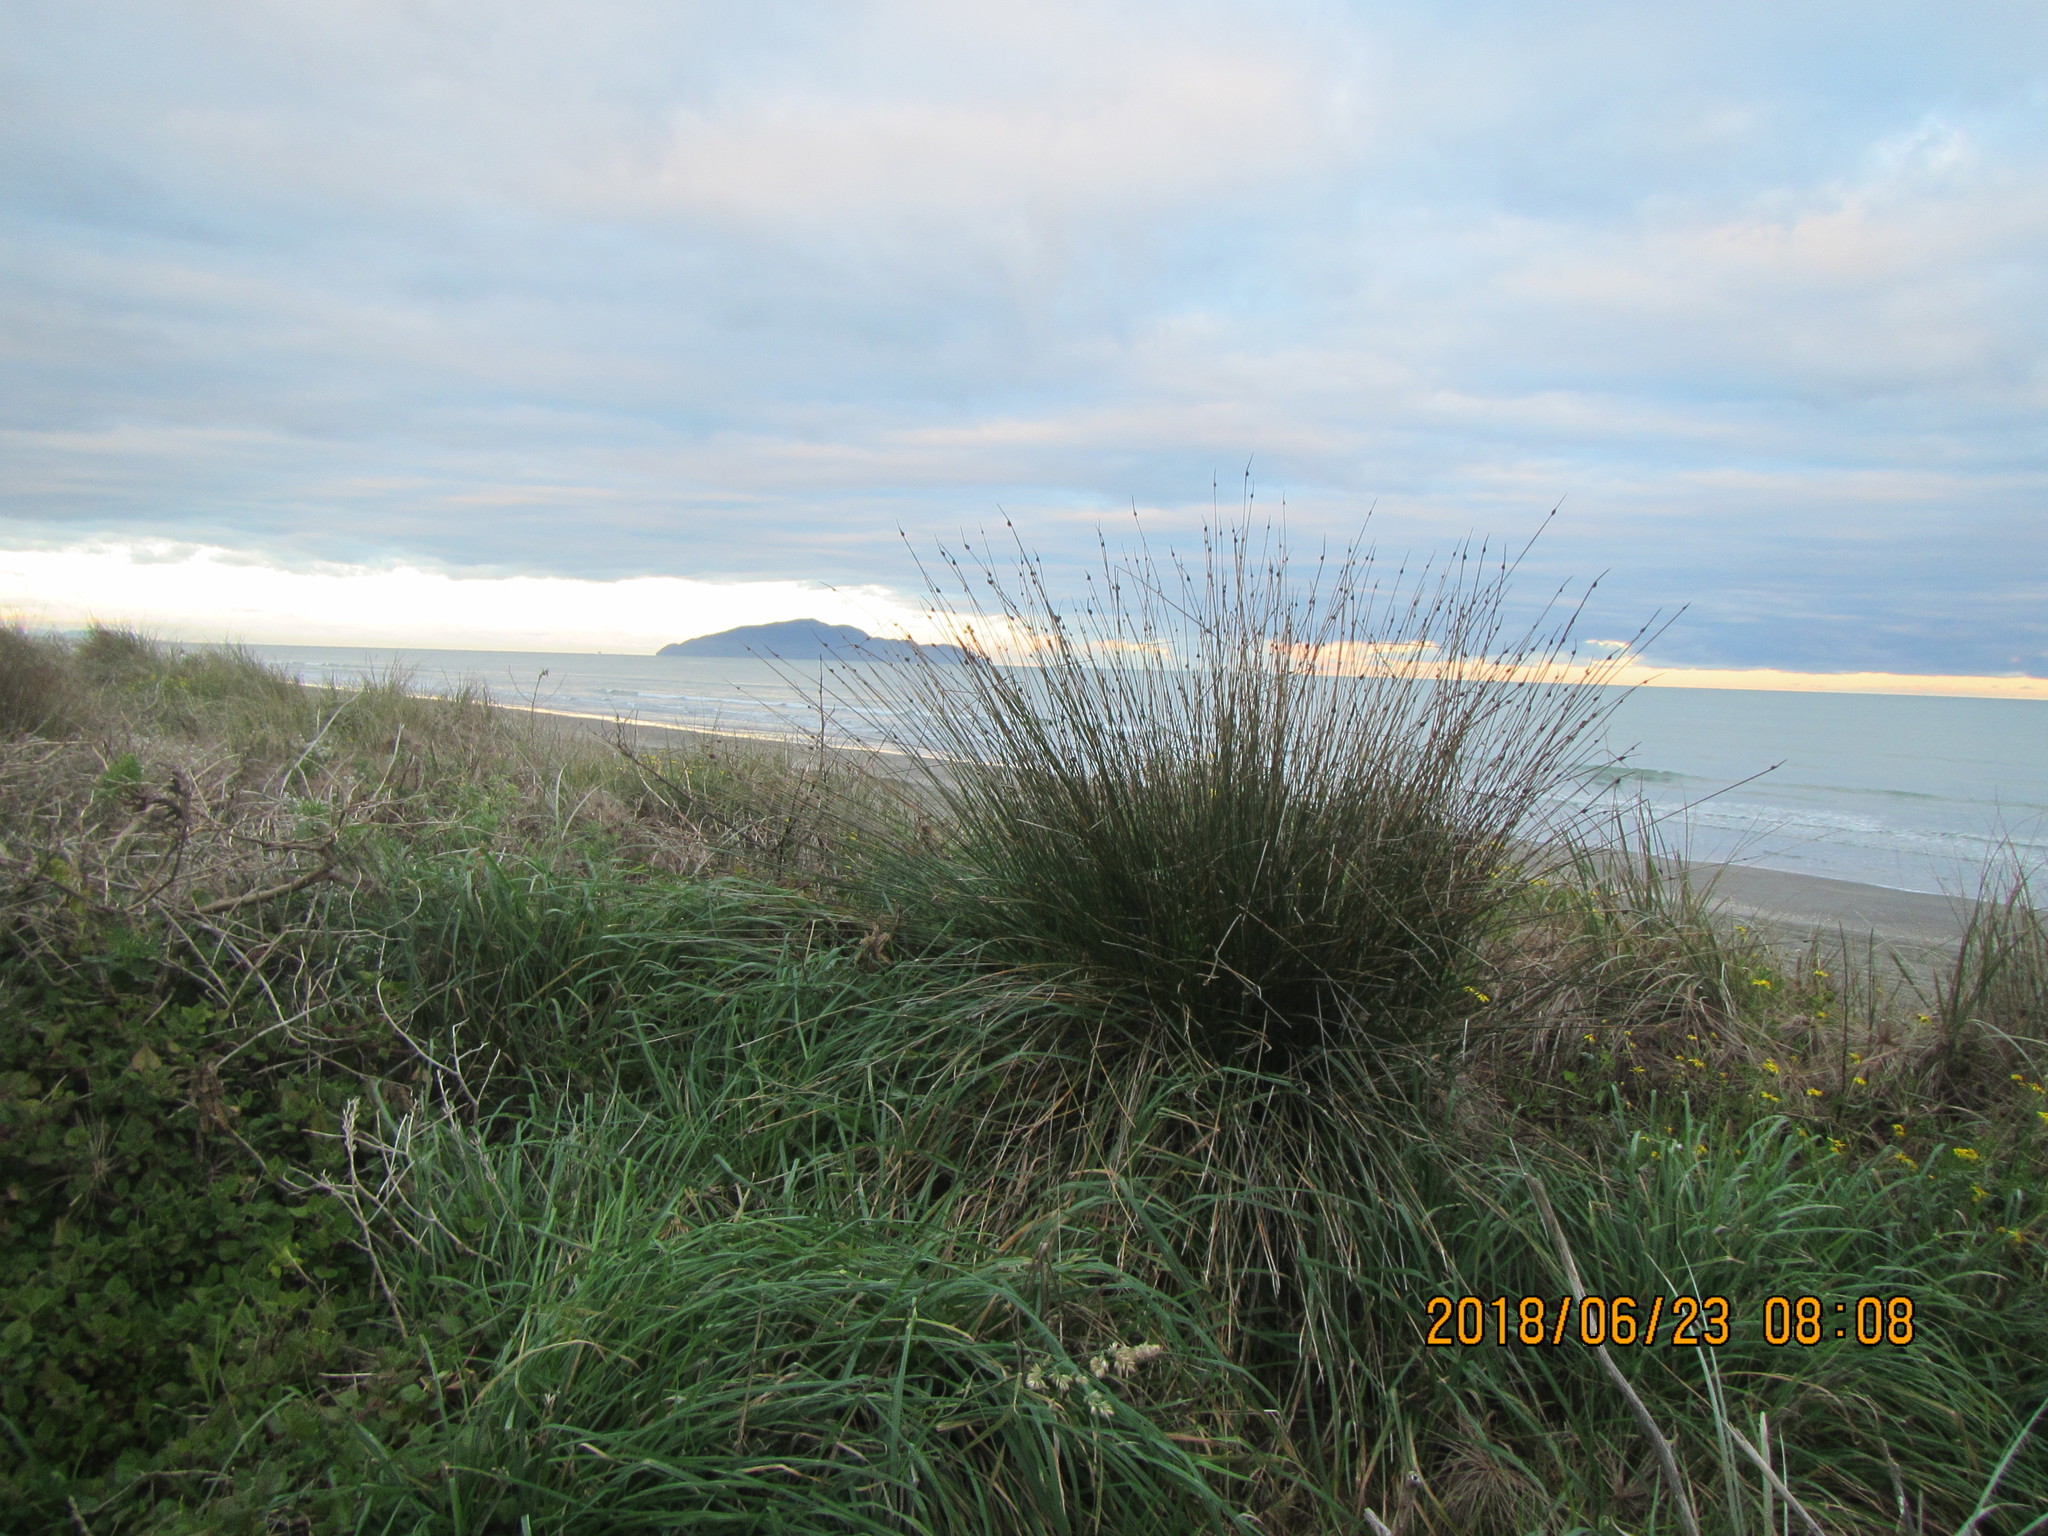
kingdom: Plantae
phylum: Tracheophyta
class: Liliopsida
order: Poales
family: Cyperaceae
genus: Ficinia
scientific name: Ficinia nodosa
